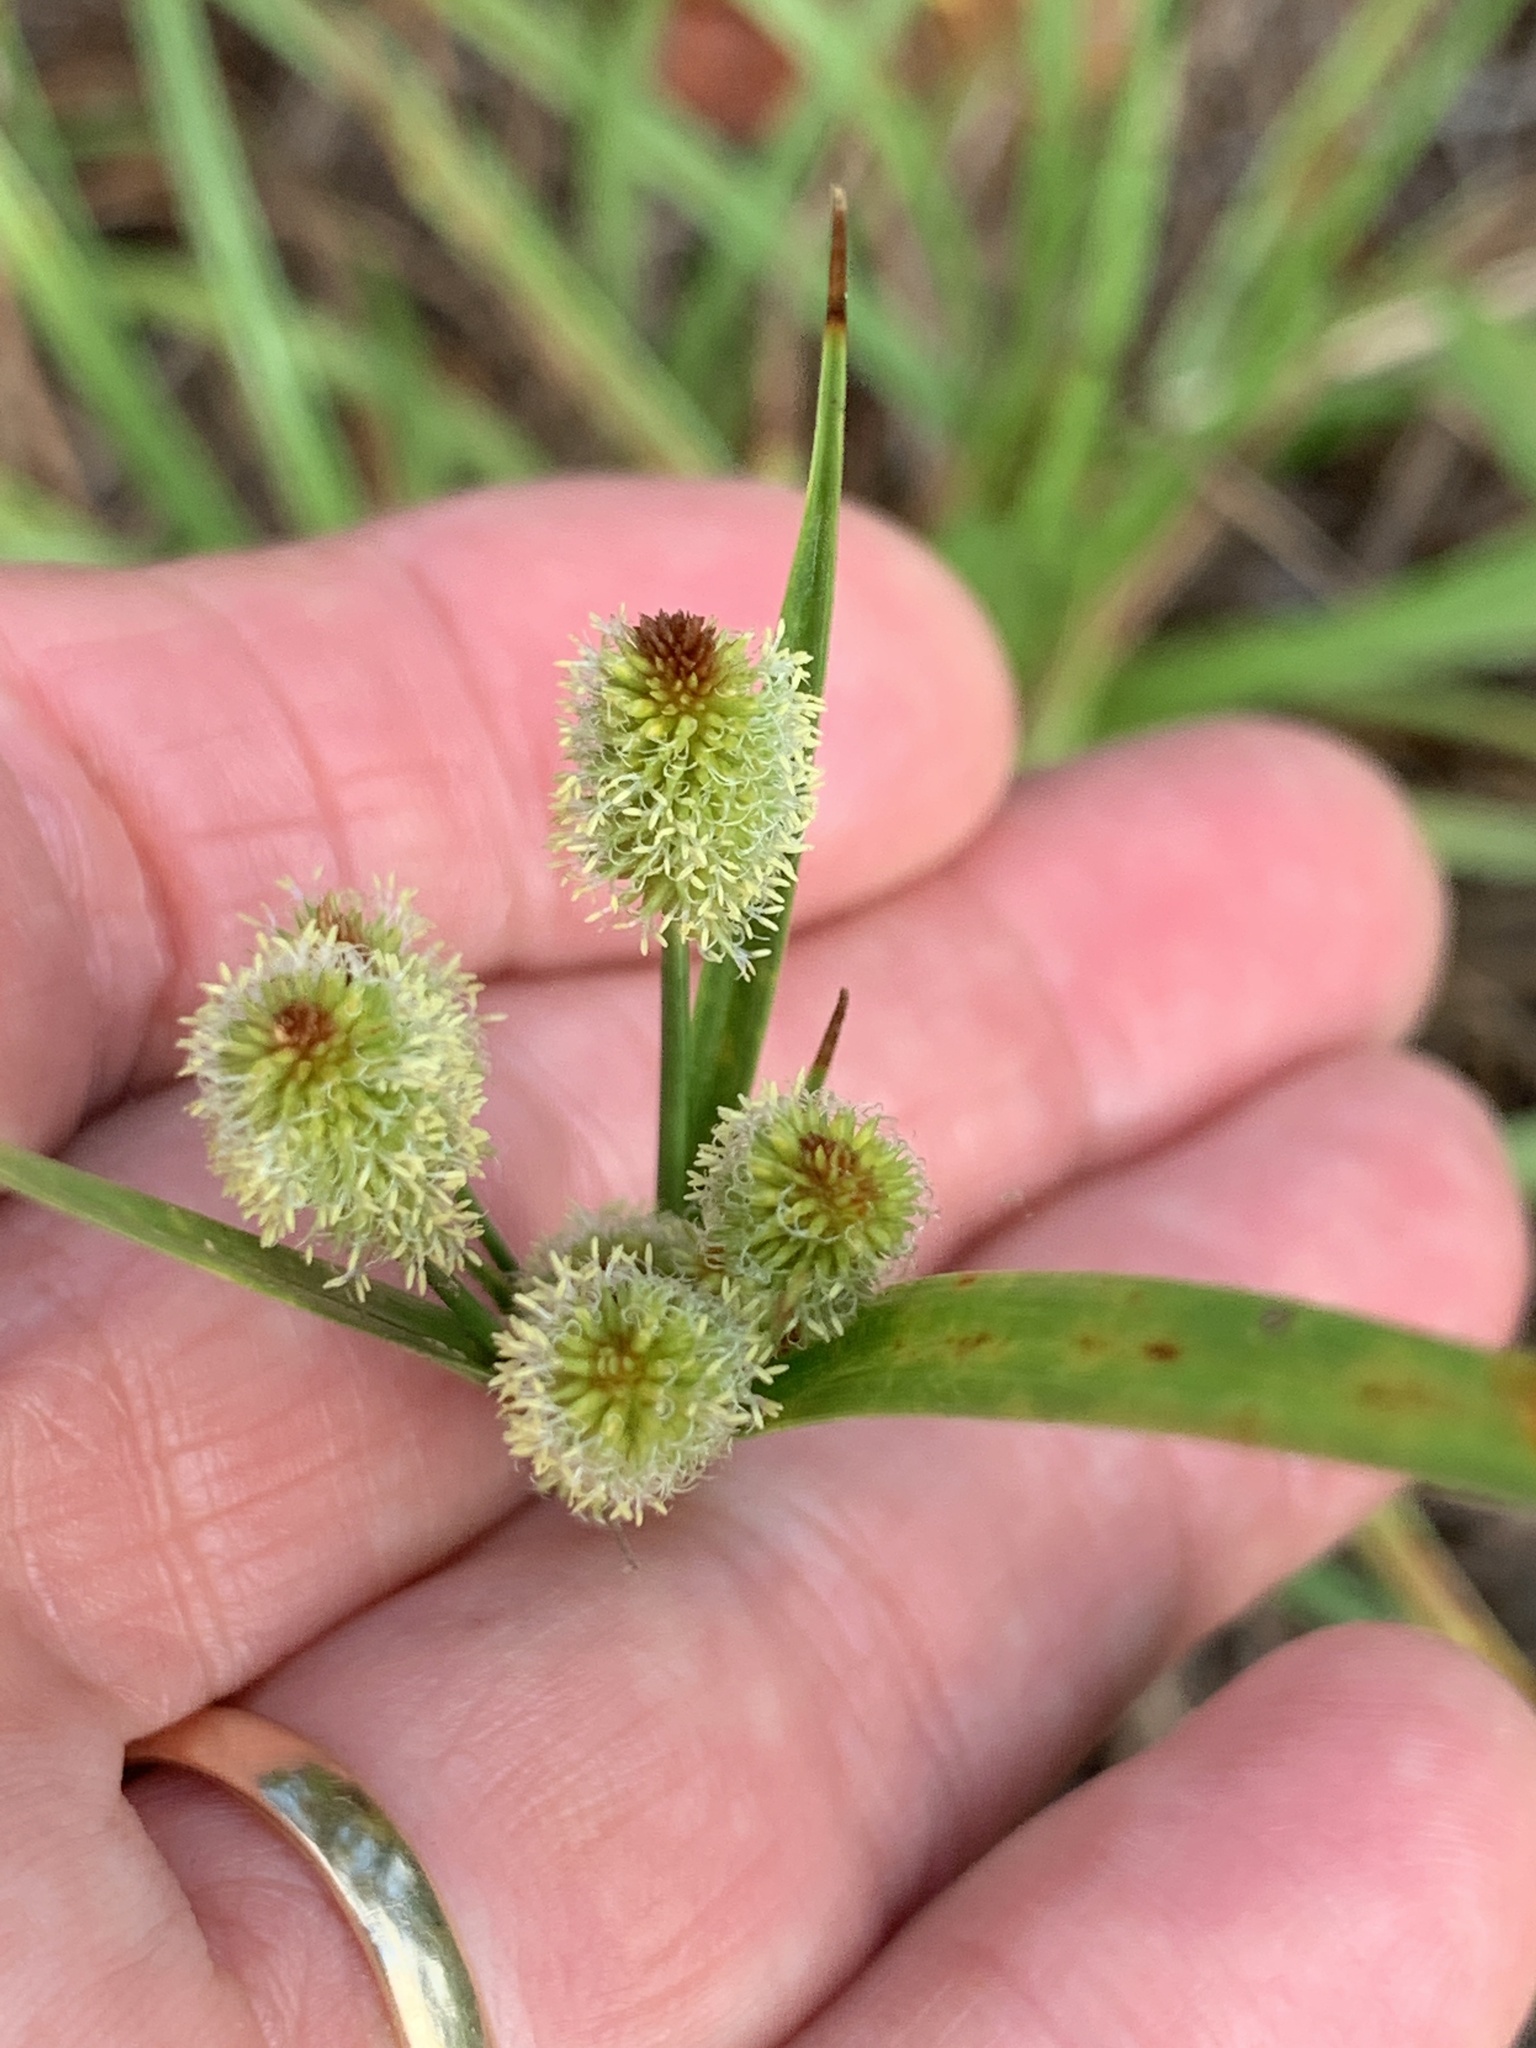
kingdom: Plantae
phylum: Tracheophyta
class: Liliopsida
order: Poales
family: Cyperaceae
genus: Cyperus
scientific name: Cyperus retrorsus
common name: Pinebarren flat sedge
